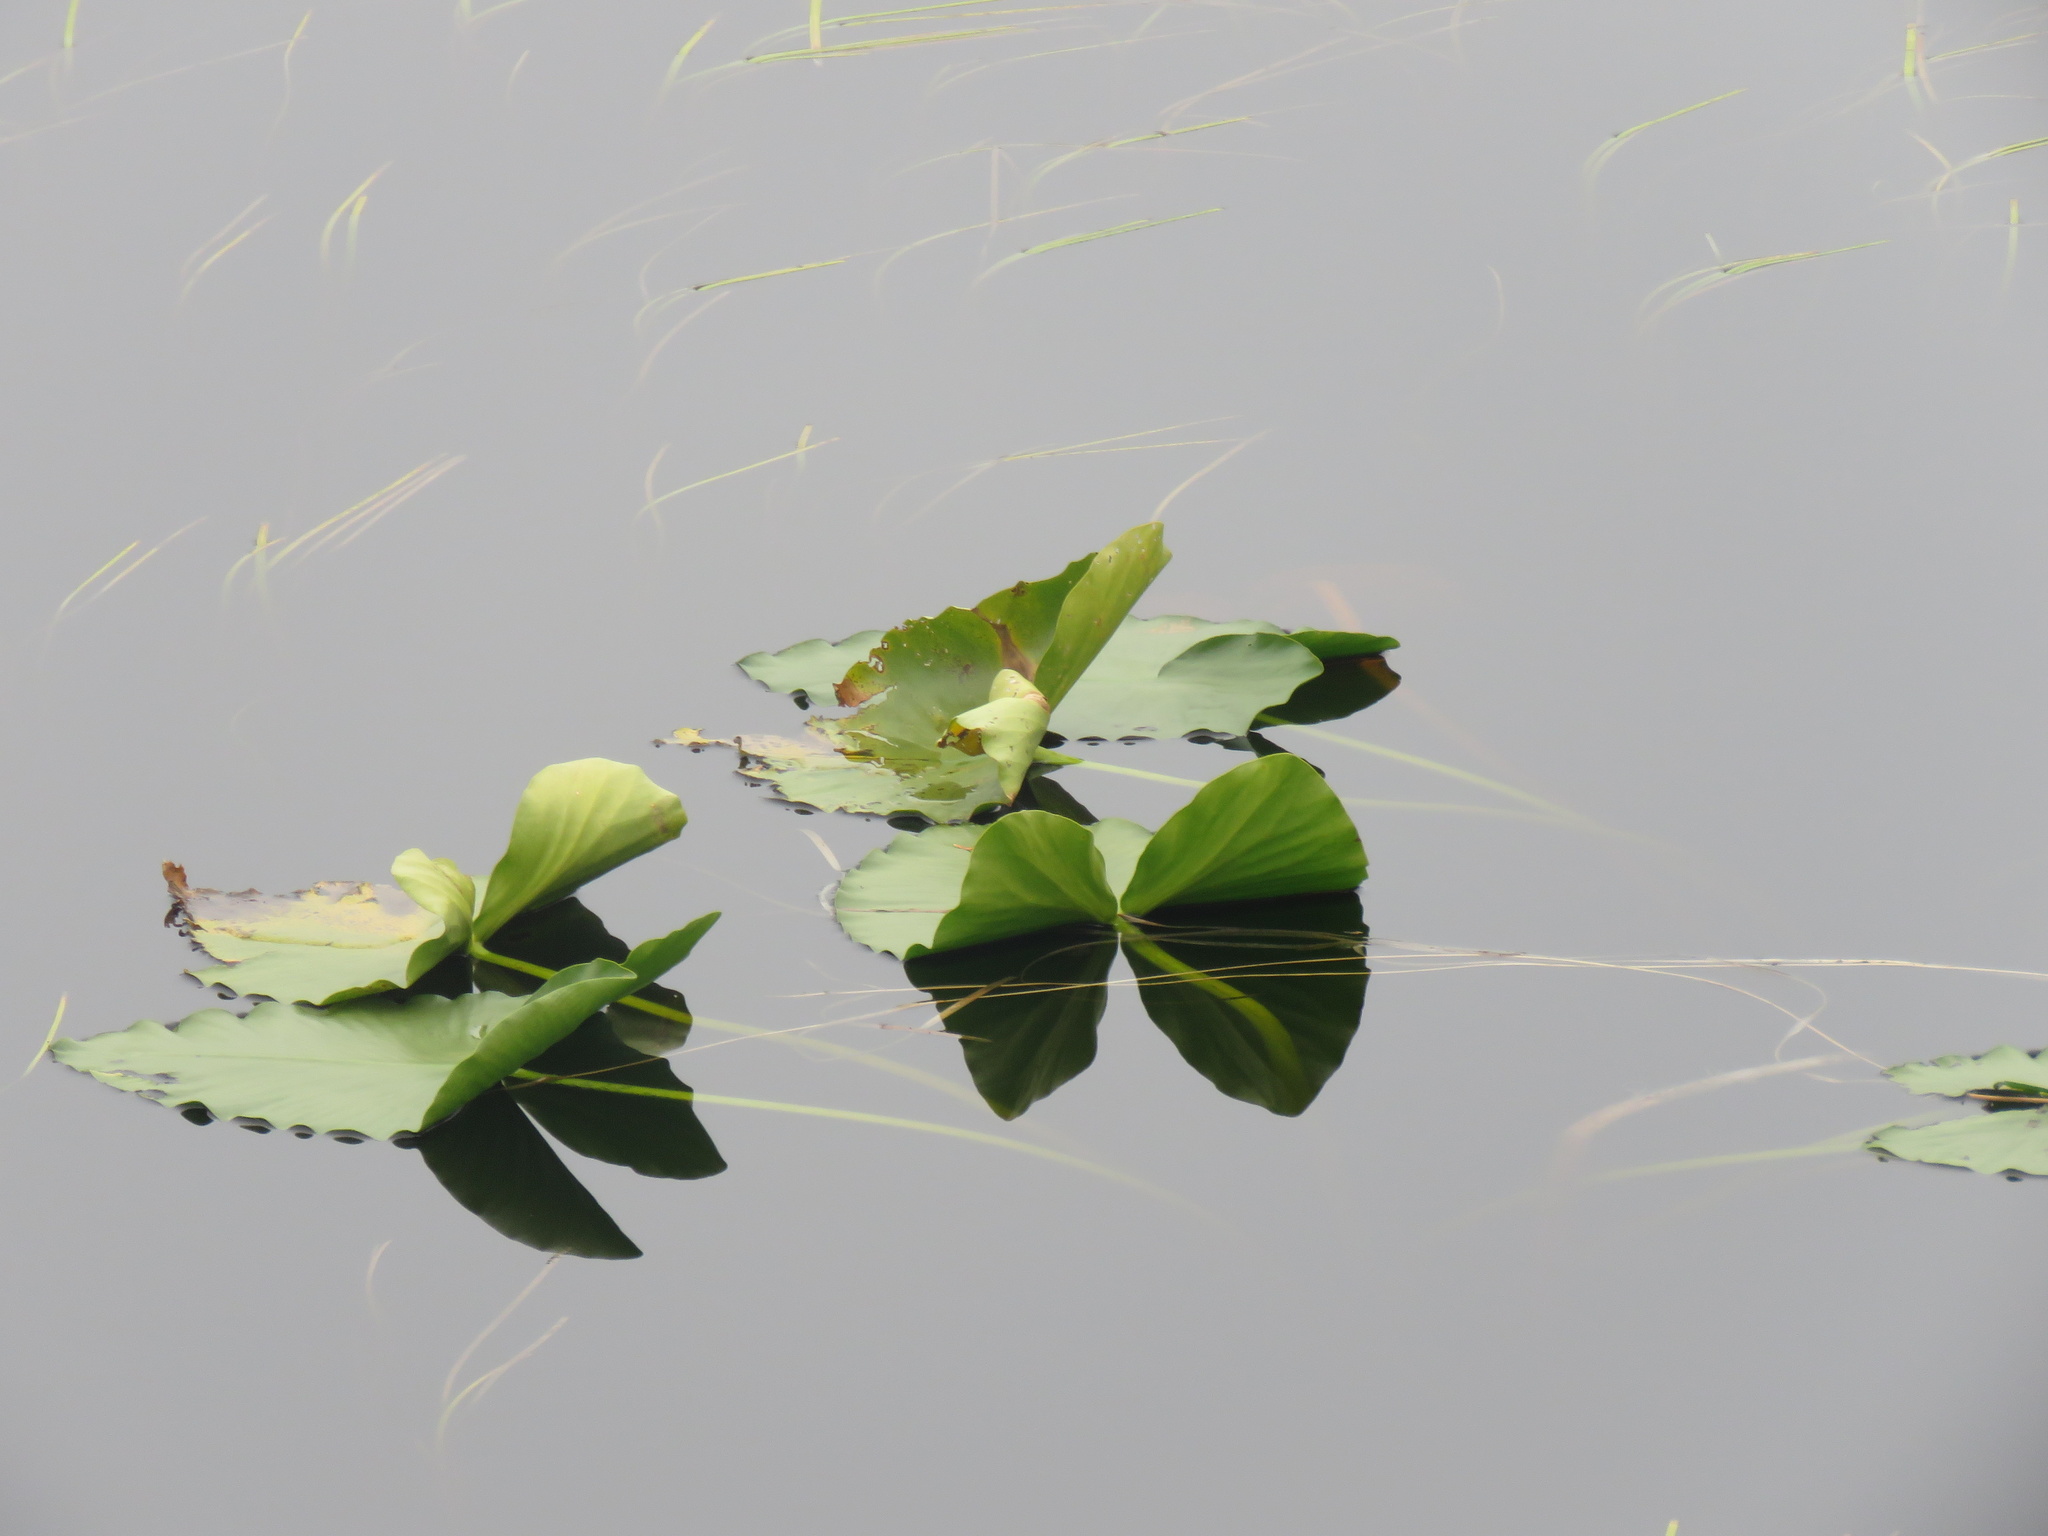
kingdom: Plantae
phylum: Tracheophyta
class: Magnoliopsida
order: Nymphaeales
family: Nymphaeaceae
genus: Nuphar
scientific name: Nuphar polysepala
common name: Rocky mountain cow-lily
